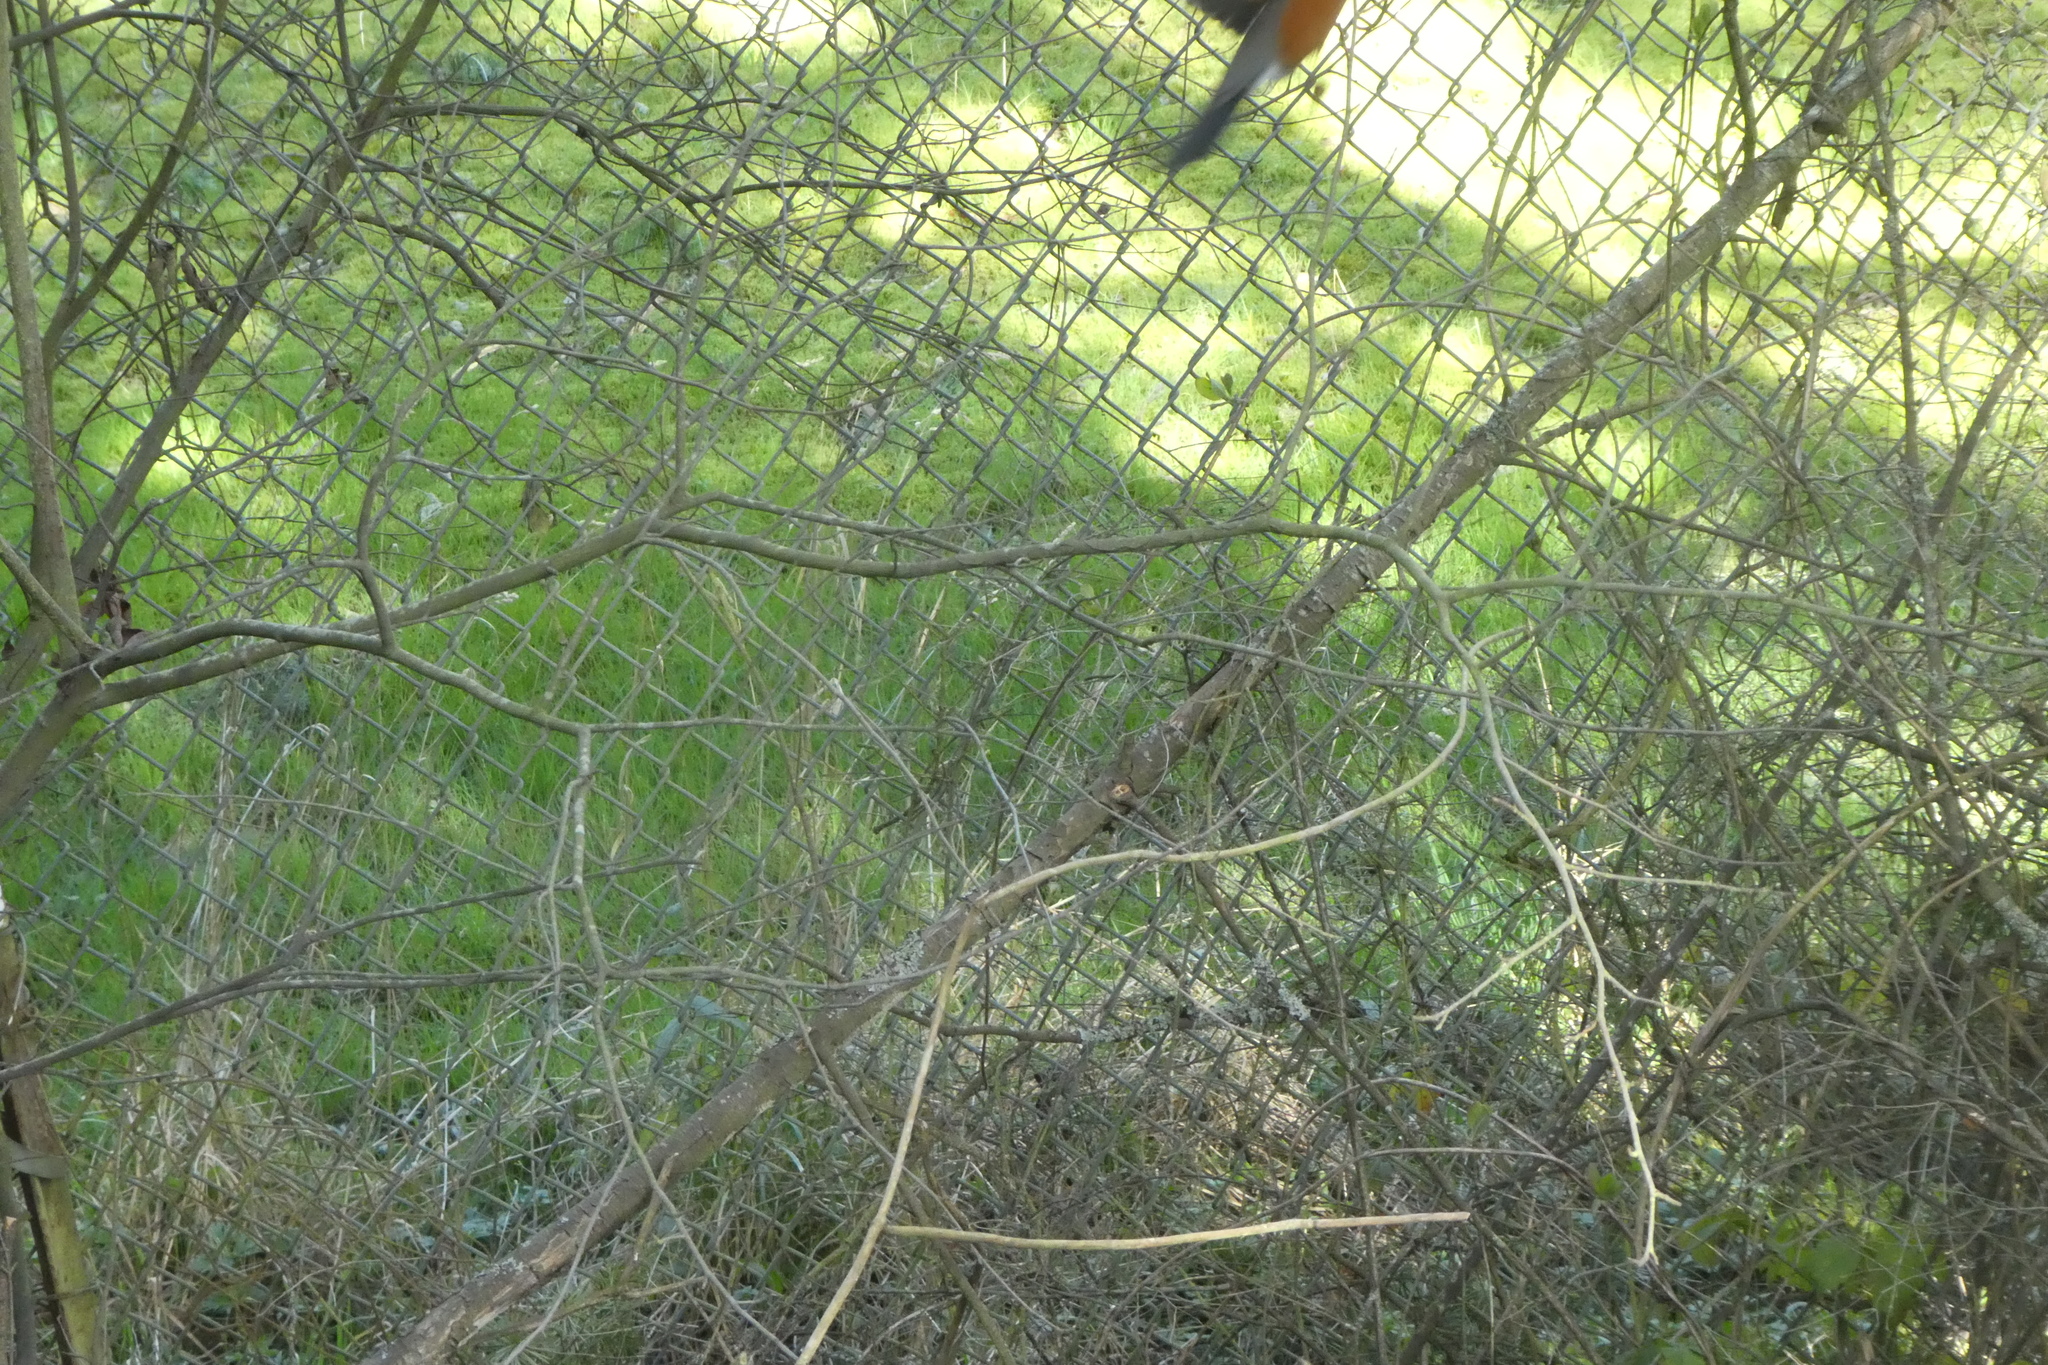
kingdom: Animalia
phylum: Chordata
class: Aves
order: Passeriformes
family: Turdidae
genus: Turdus
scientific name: Turdus migratorius
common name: American robin
